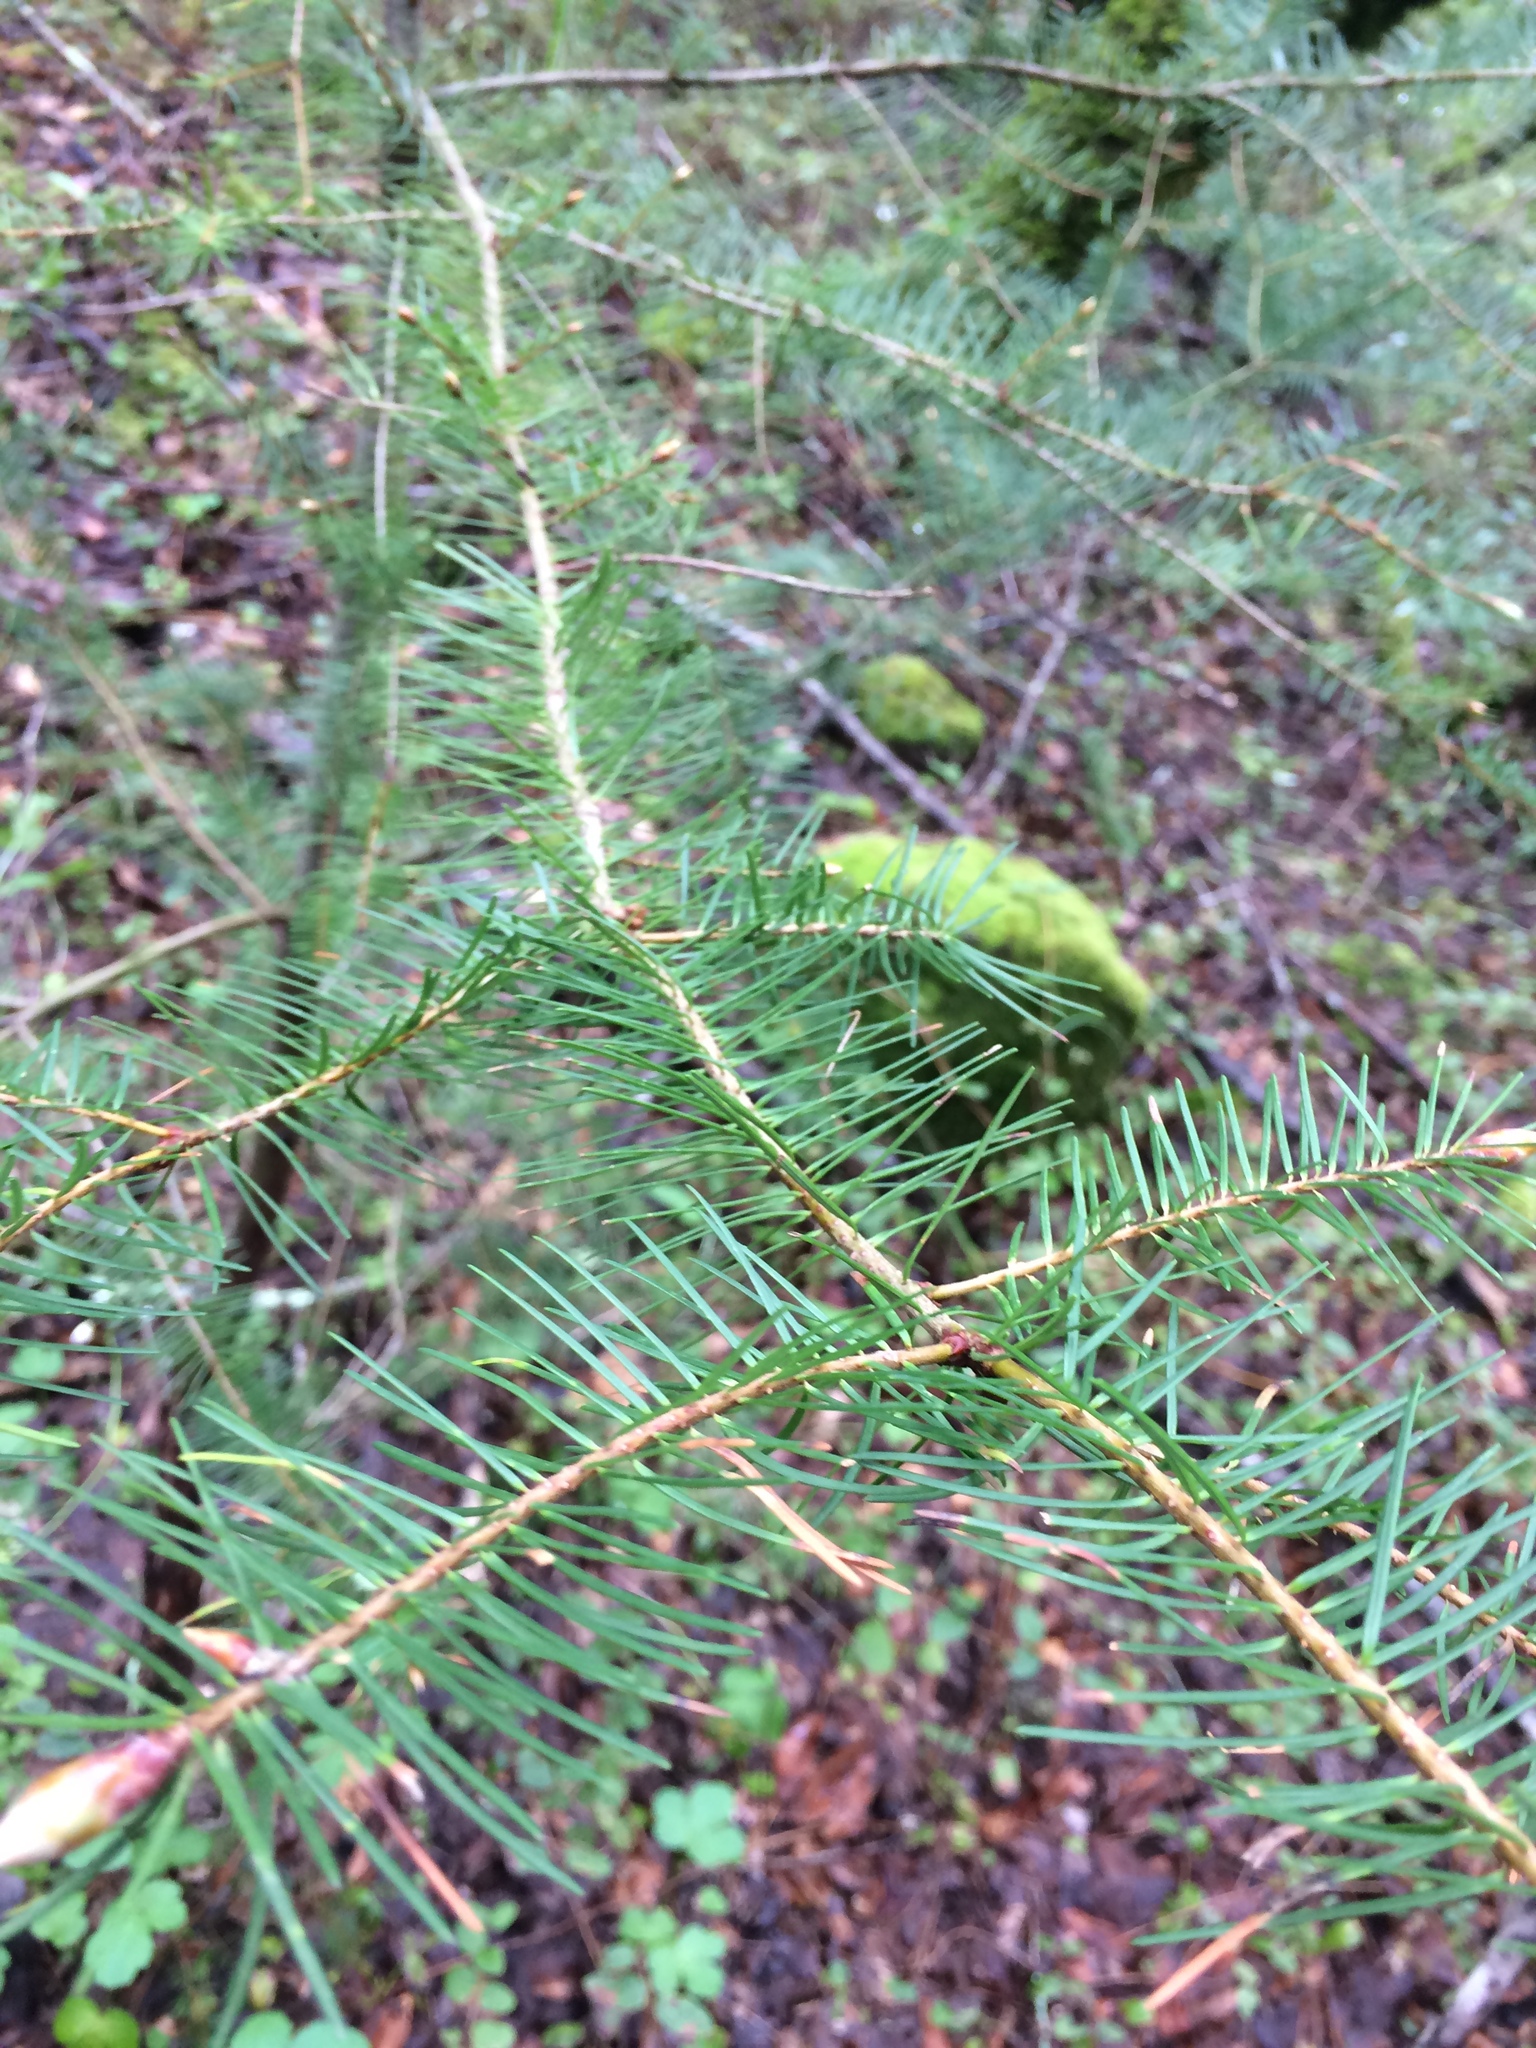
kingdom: Plantae
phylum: Tracheophyta
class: Pinopsida
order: Pinales
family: Pinaceae
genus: Pseudotsuga
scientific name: Pseudotsuga menziesii
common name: Douglas fir
